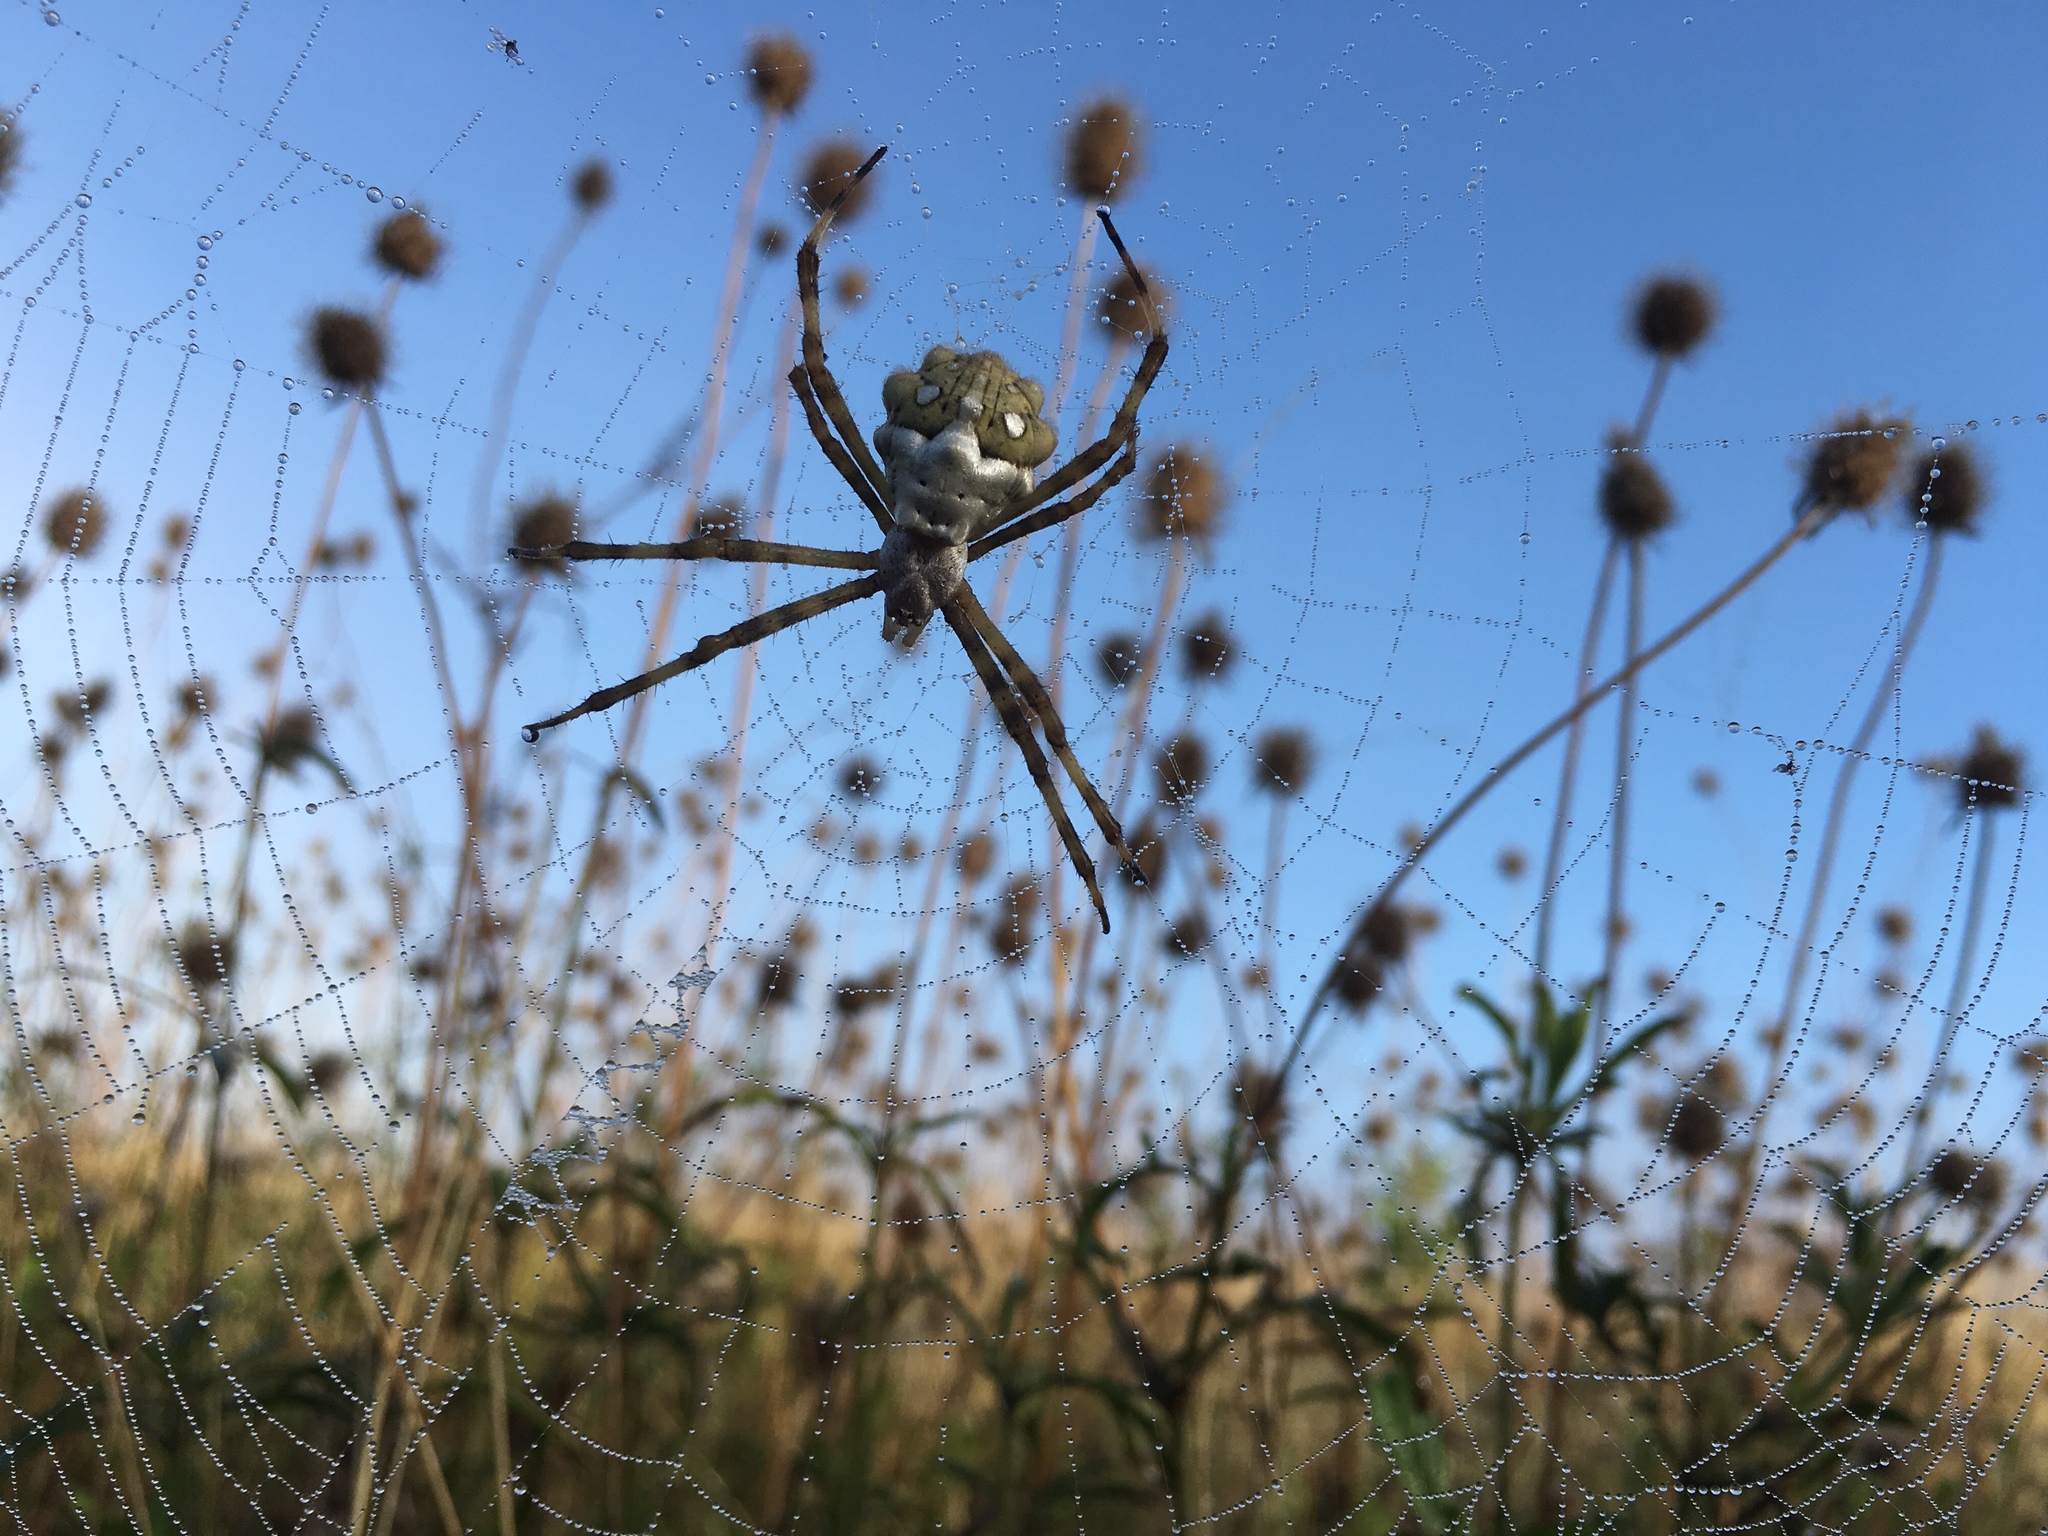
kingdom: Animalia
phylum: Arthropoda
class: Arachnida
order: Araneae
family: Araneidae
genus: Argiope
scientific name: Argiope argentata
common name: Orb weavers
